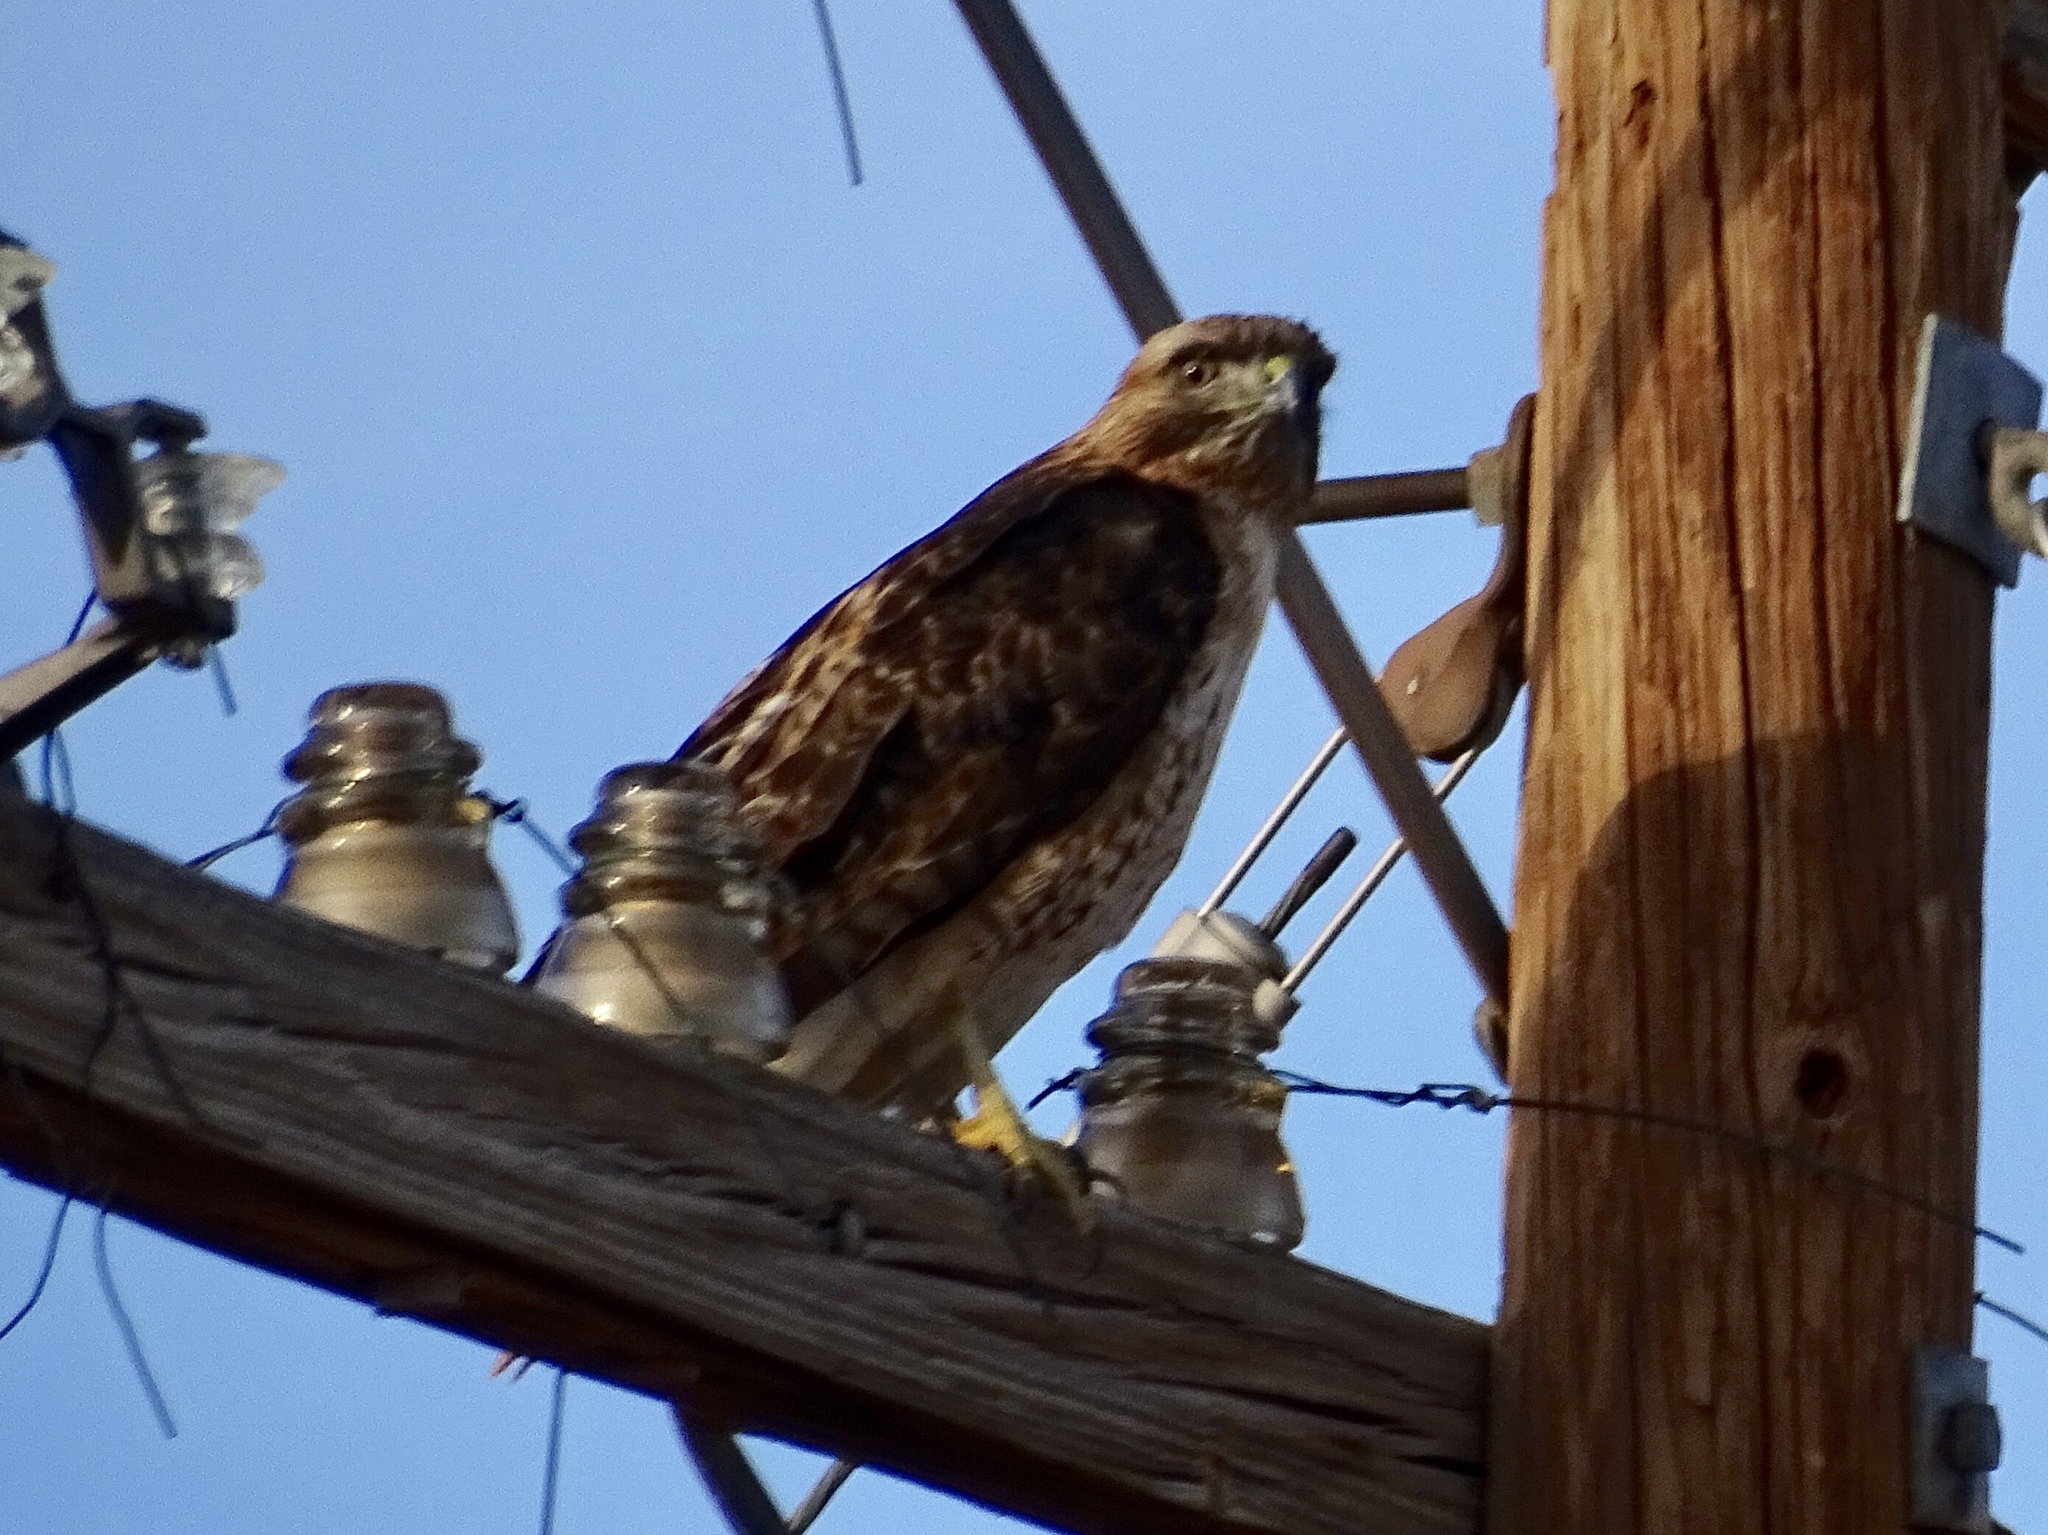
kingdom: Animalia
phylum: Chordata
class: Aves
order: Accipitriformes
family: Accipitridae
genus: Buteo
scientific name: Buteo jamaicensis
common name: Red-tailed hawk
